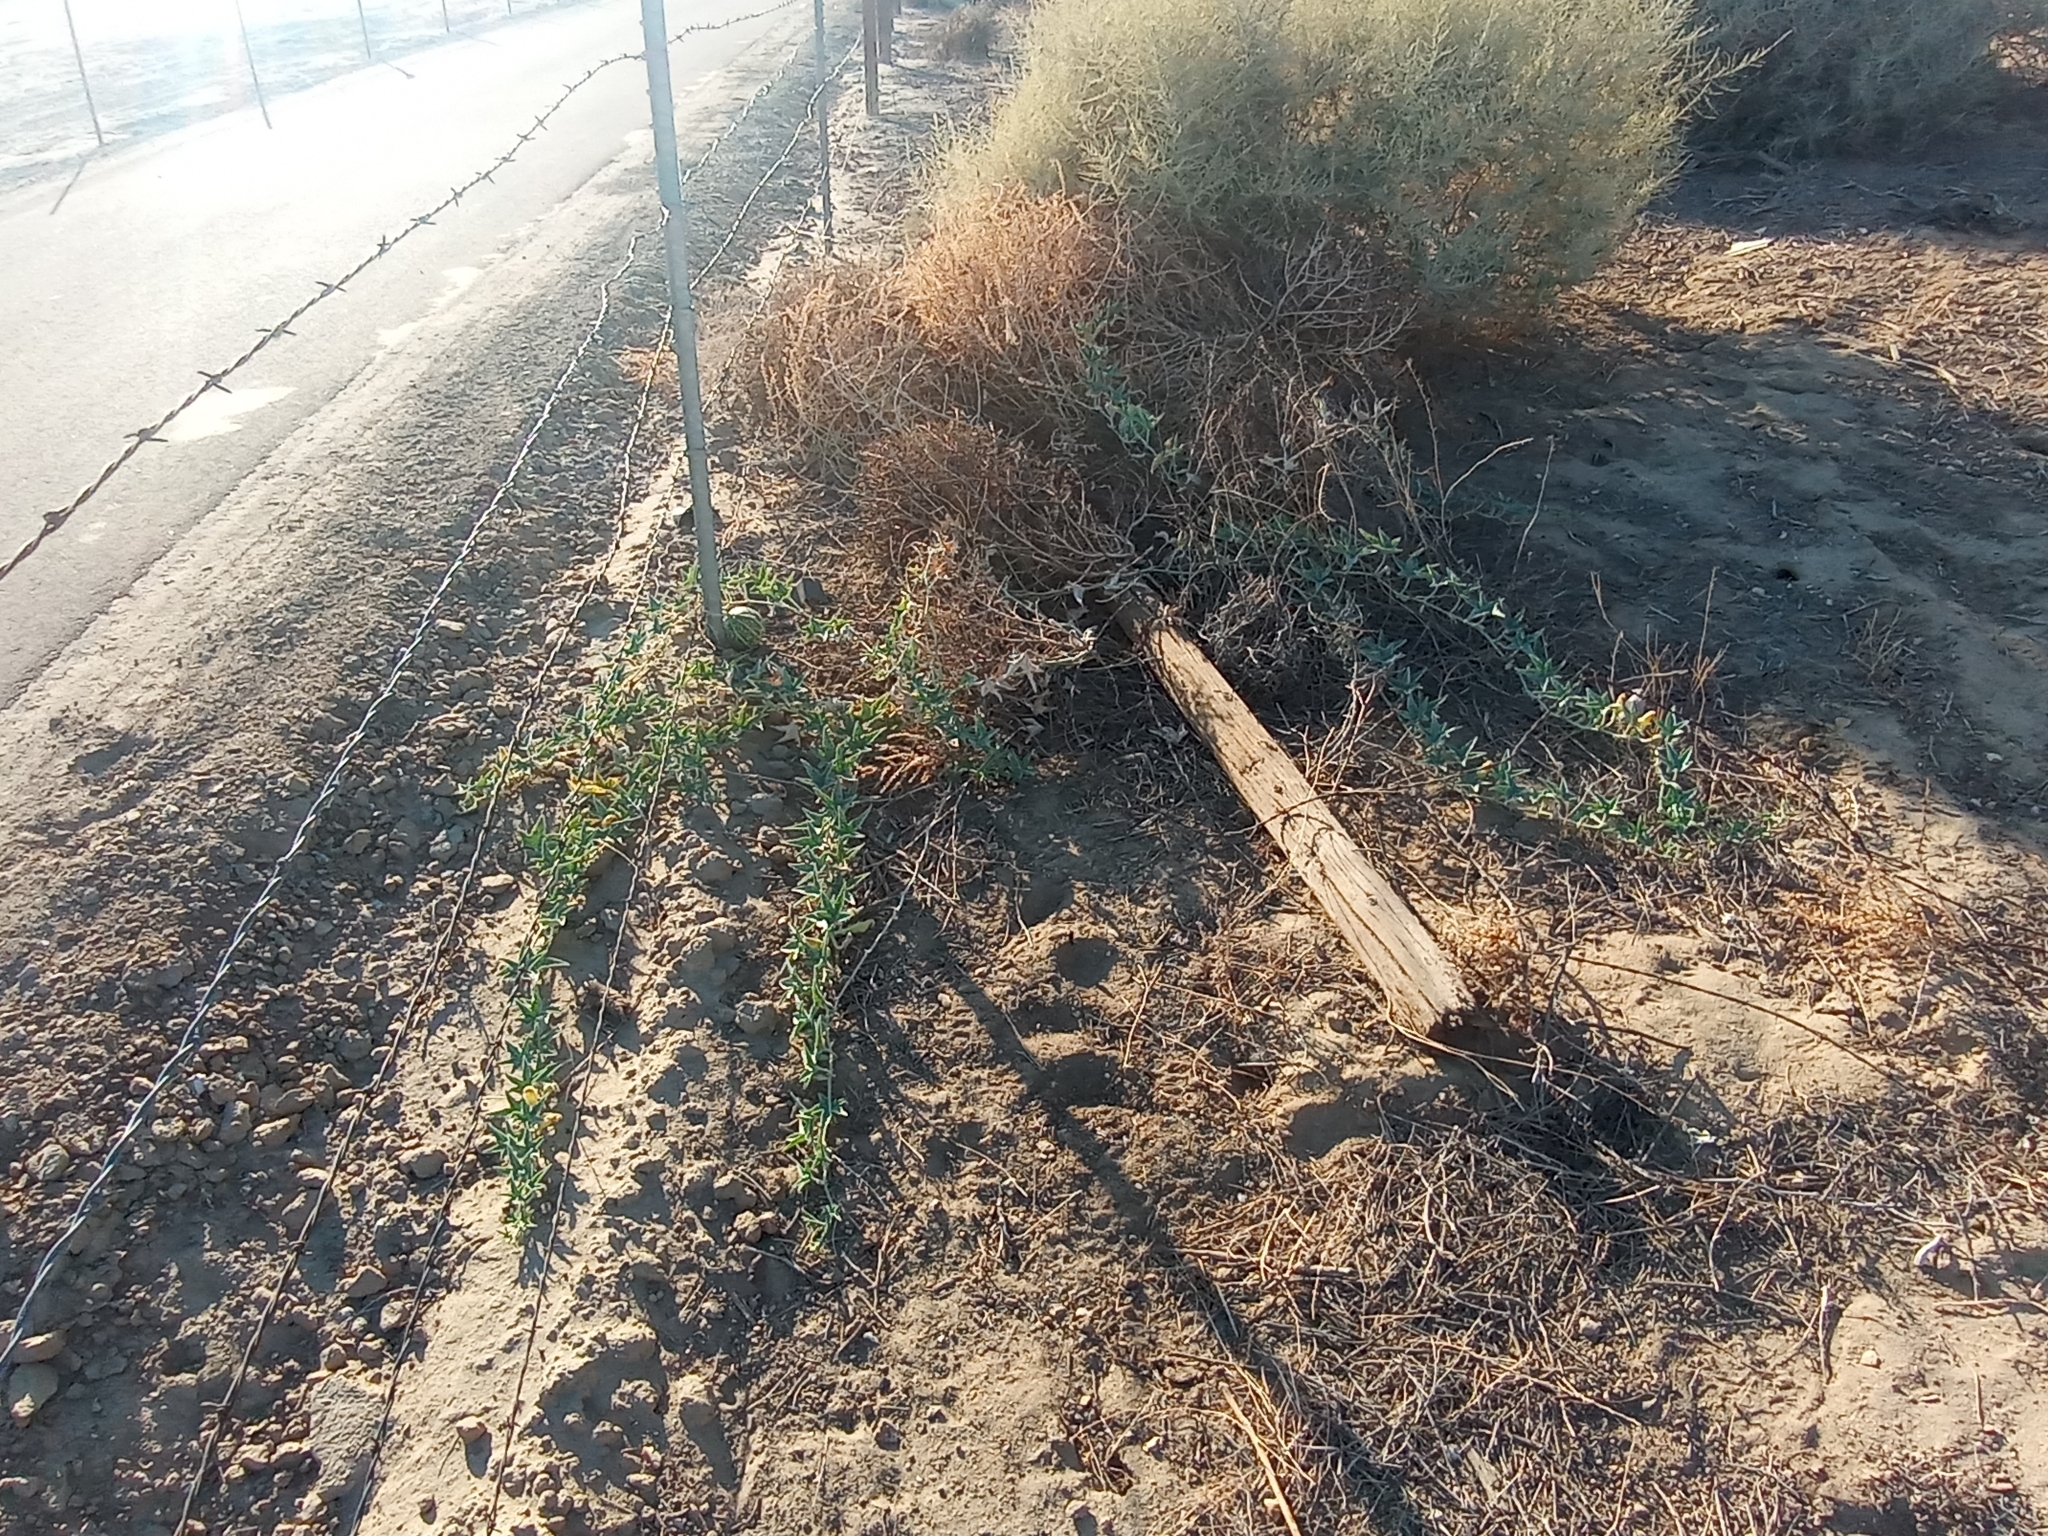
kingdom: Plantae
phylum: Tracheophyta
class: Magnoliopsida
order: Cucurbitales
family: Cucurbitaceae
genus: Cucurbita
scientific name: Cucurbita palmata
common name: Coyote-melon
